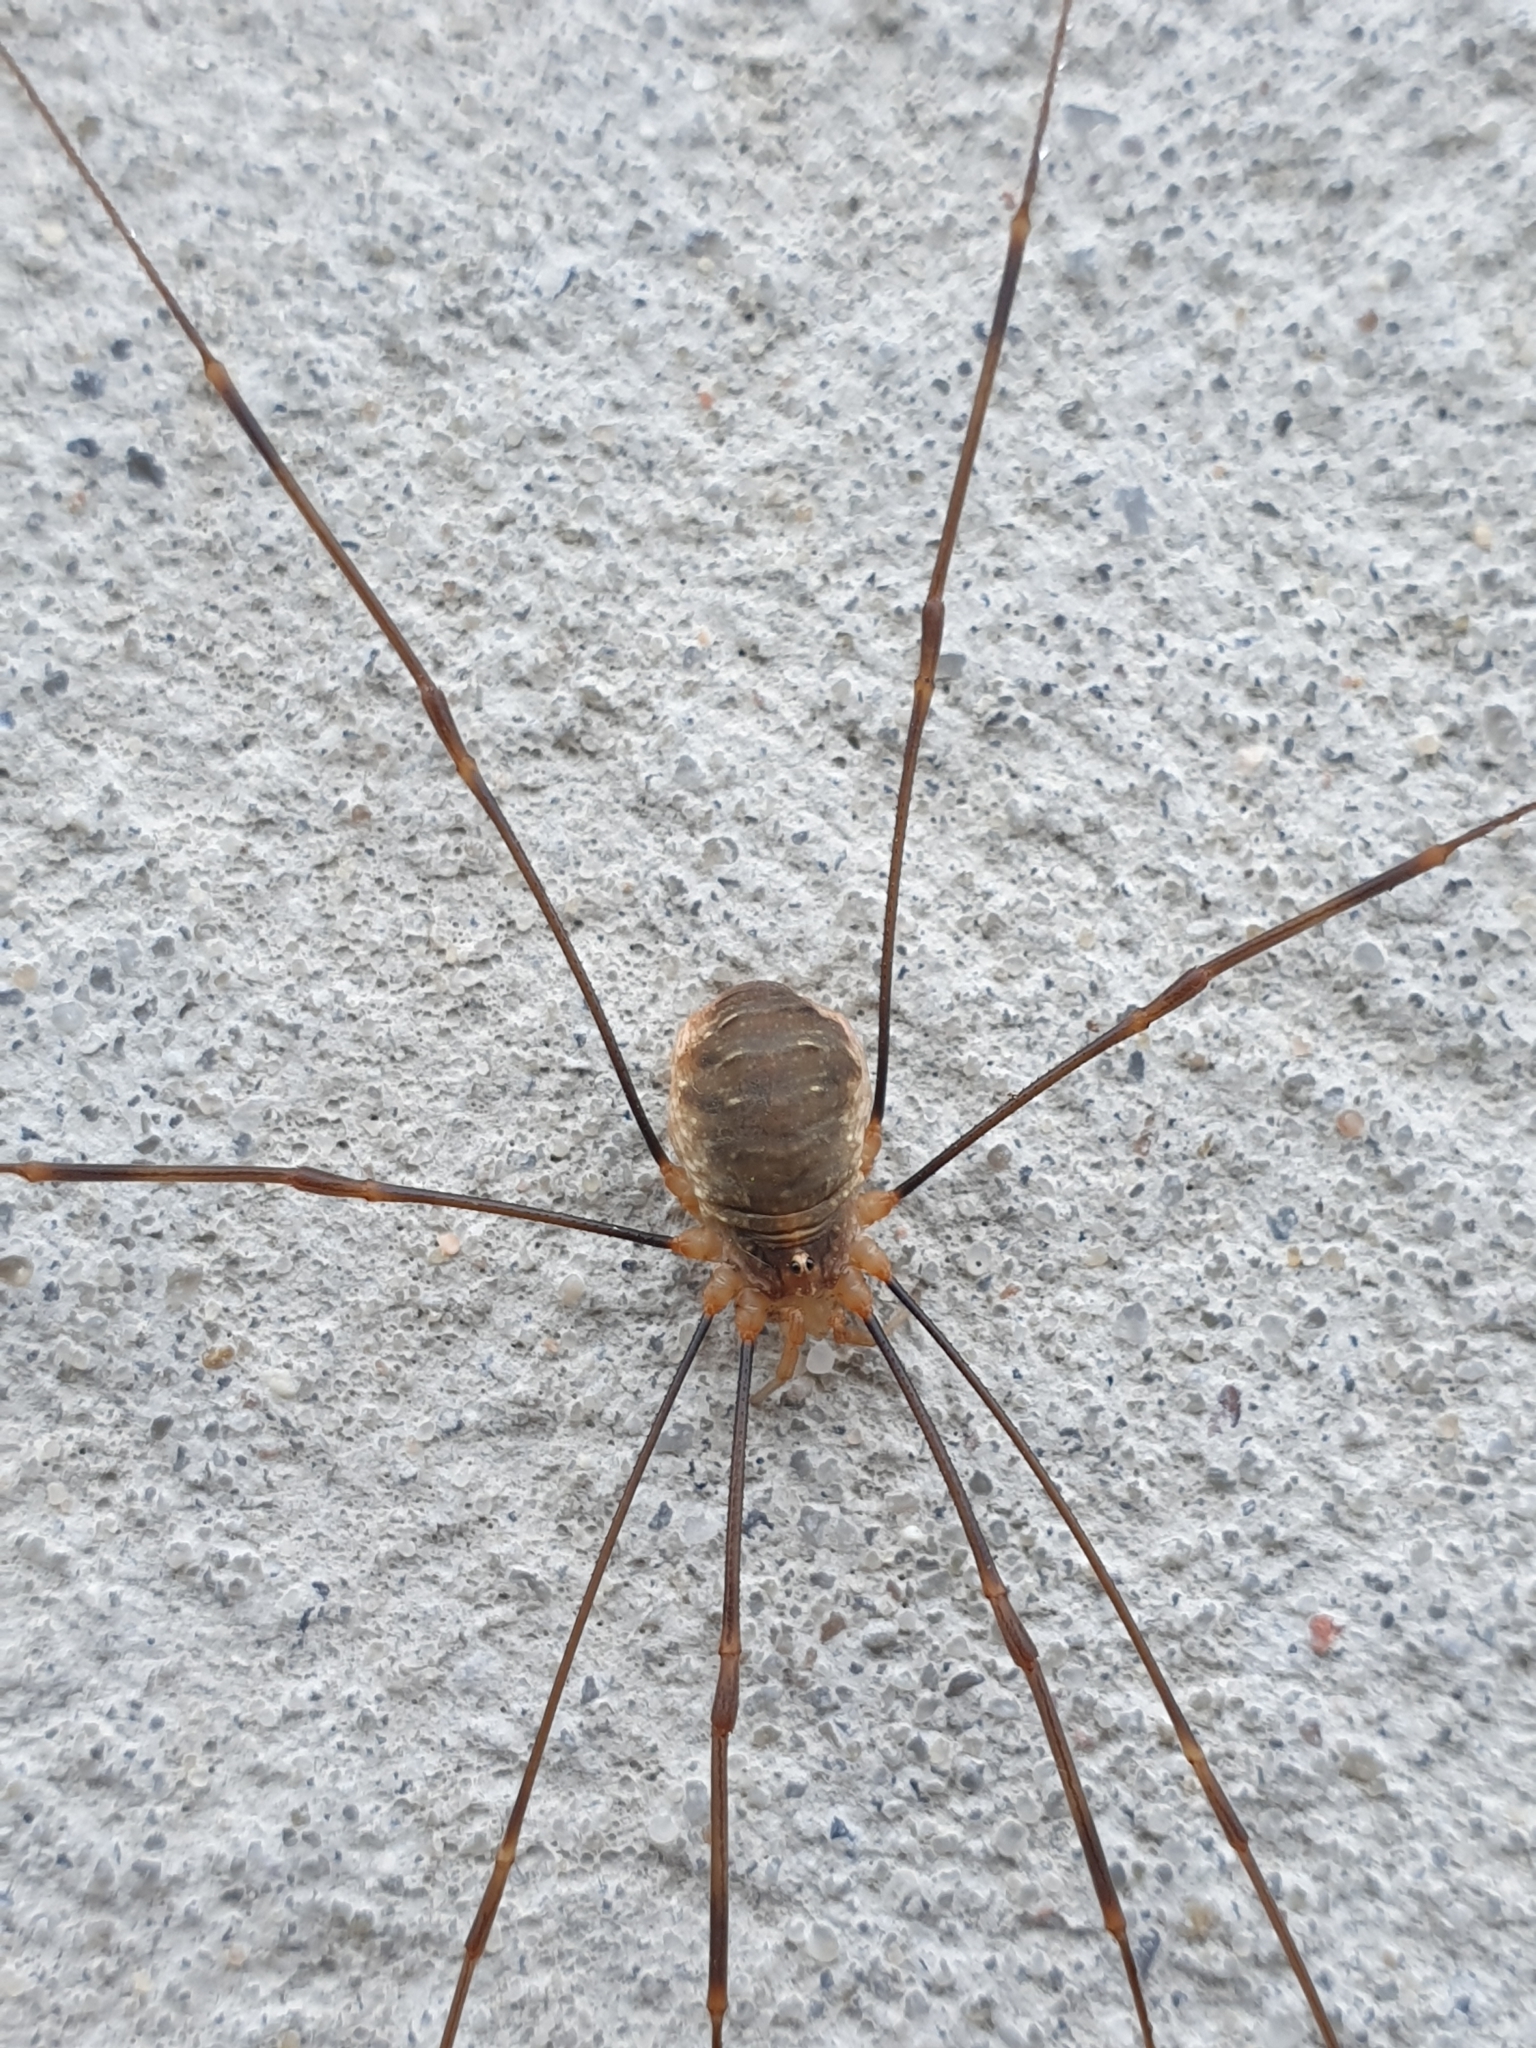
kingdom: Animalia
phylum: Arthropoda
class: Arachnida
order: Opiliones
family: Phalangiidae
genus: Opilio
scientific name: Opilio canestrinii
